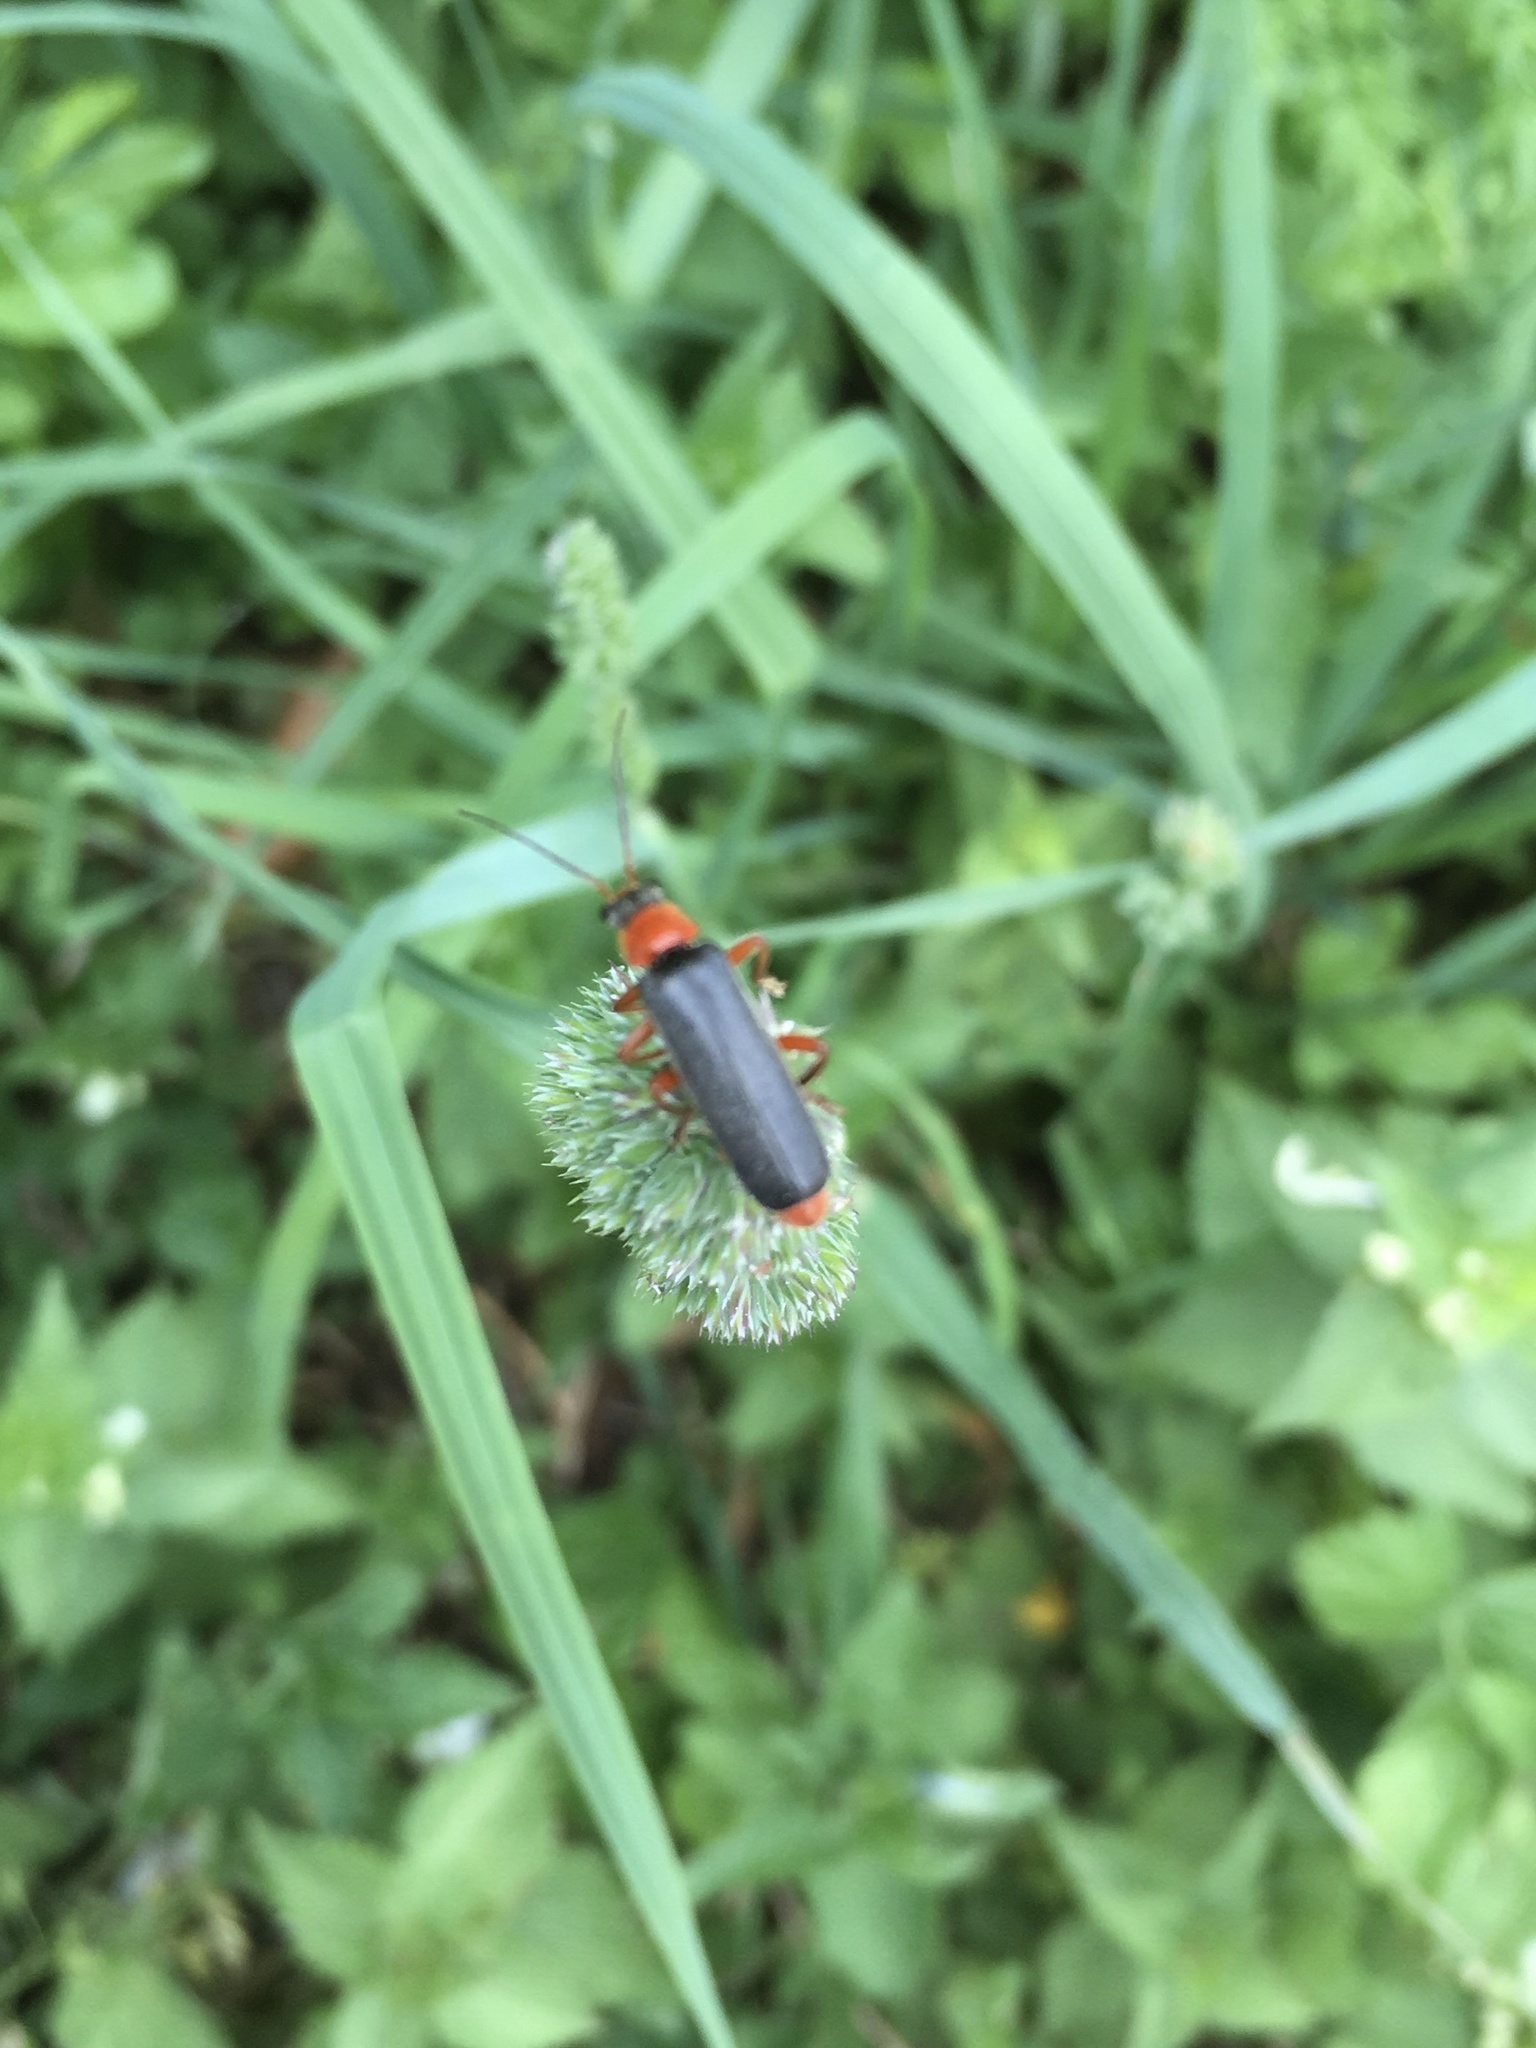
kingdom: Animalia
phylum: Arthropoda
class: Insecta
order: Coleoptera
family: Cantharidae
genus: Cantharis
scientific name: Cantharis pellucida
